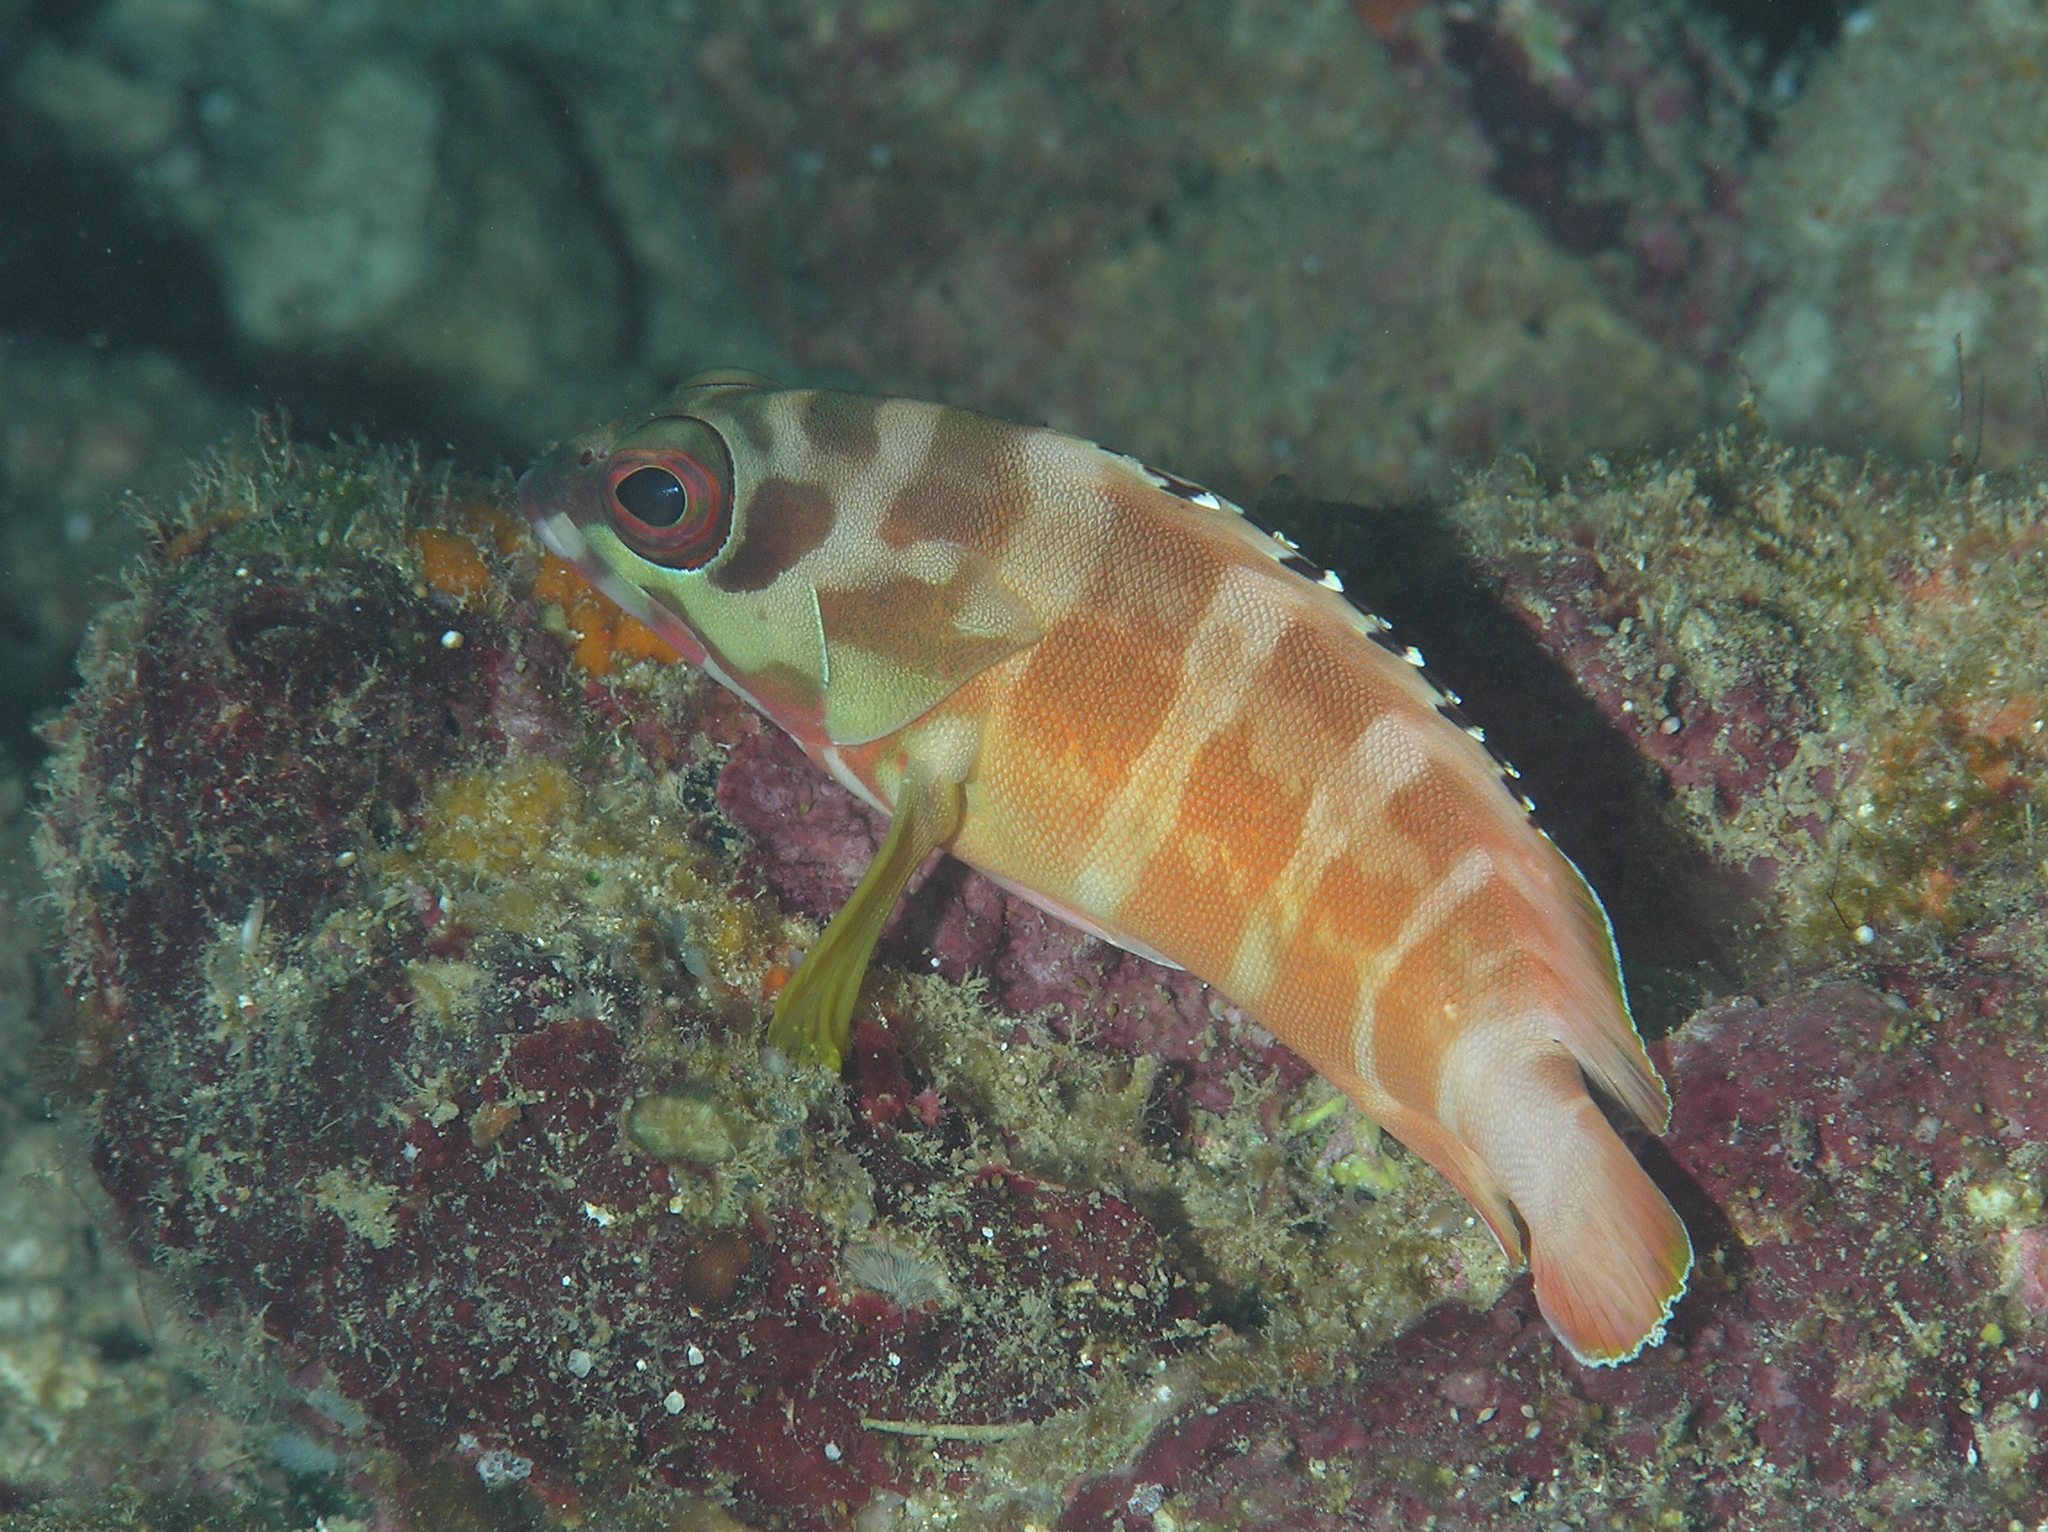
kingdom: Animalia
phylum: Chordata
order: Perciformes
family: Serranidae
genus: Epinephelus
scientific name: Epinephelus fasciatus
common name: Blacktip grouper
